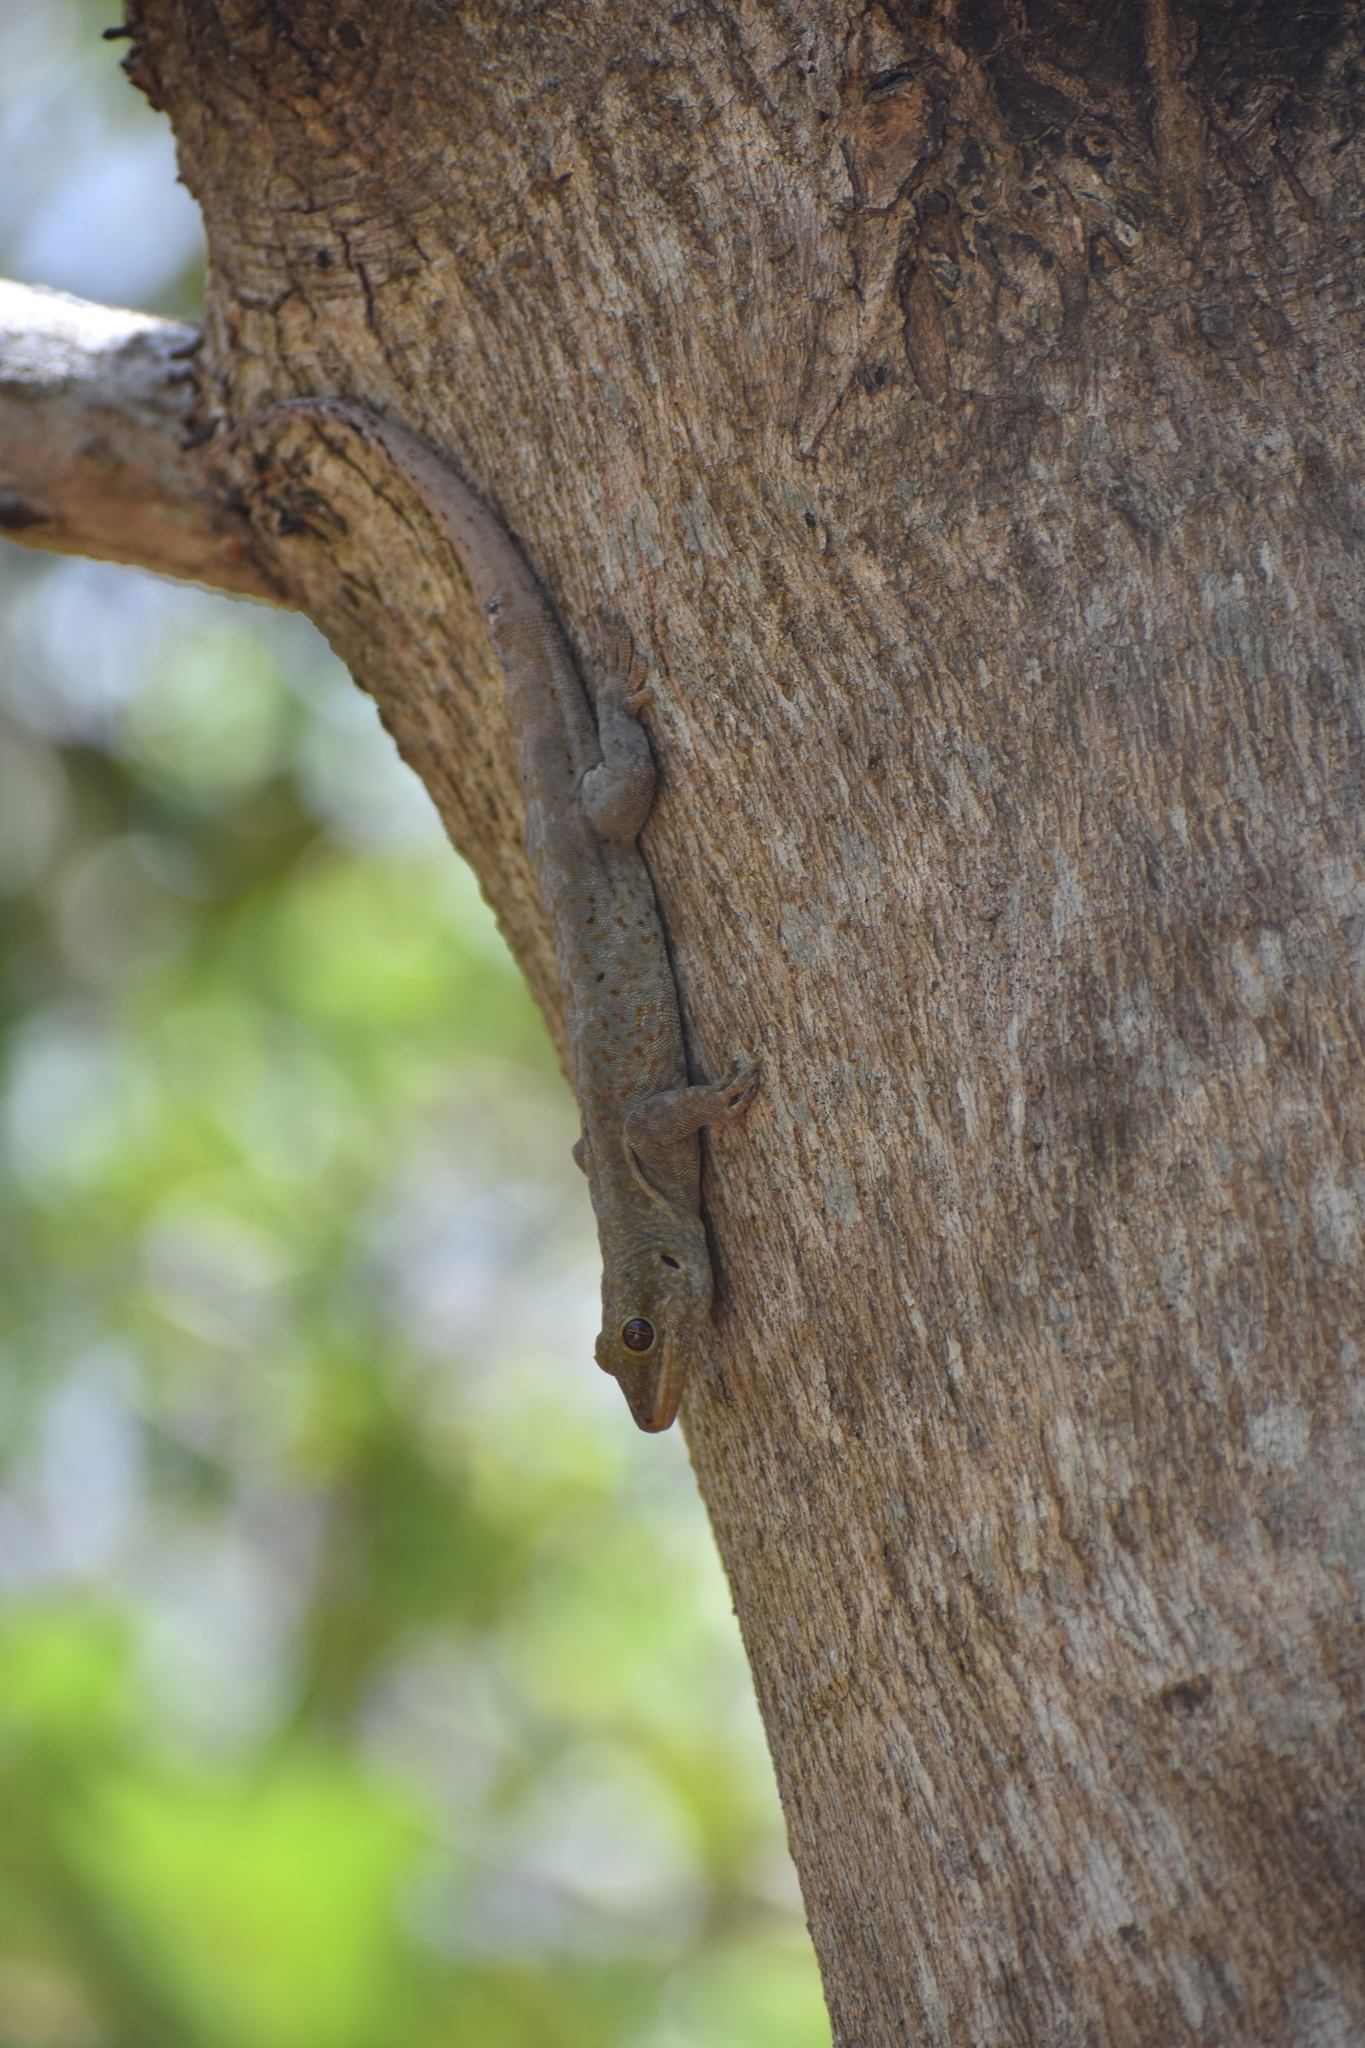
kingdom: Animalia
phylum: Chordata
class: Squamata
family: Sphaerodactylidae
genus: Aristelliger
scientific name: Aristelliger georgeensis
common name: Saint george island gecko
